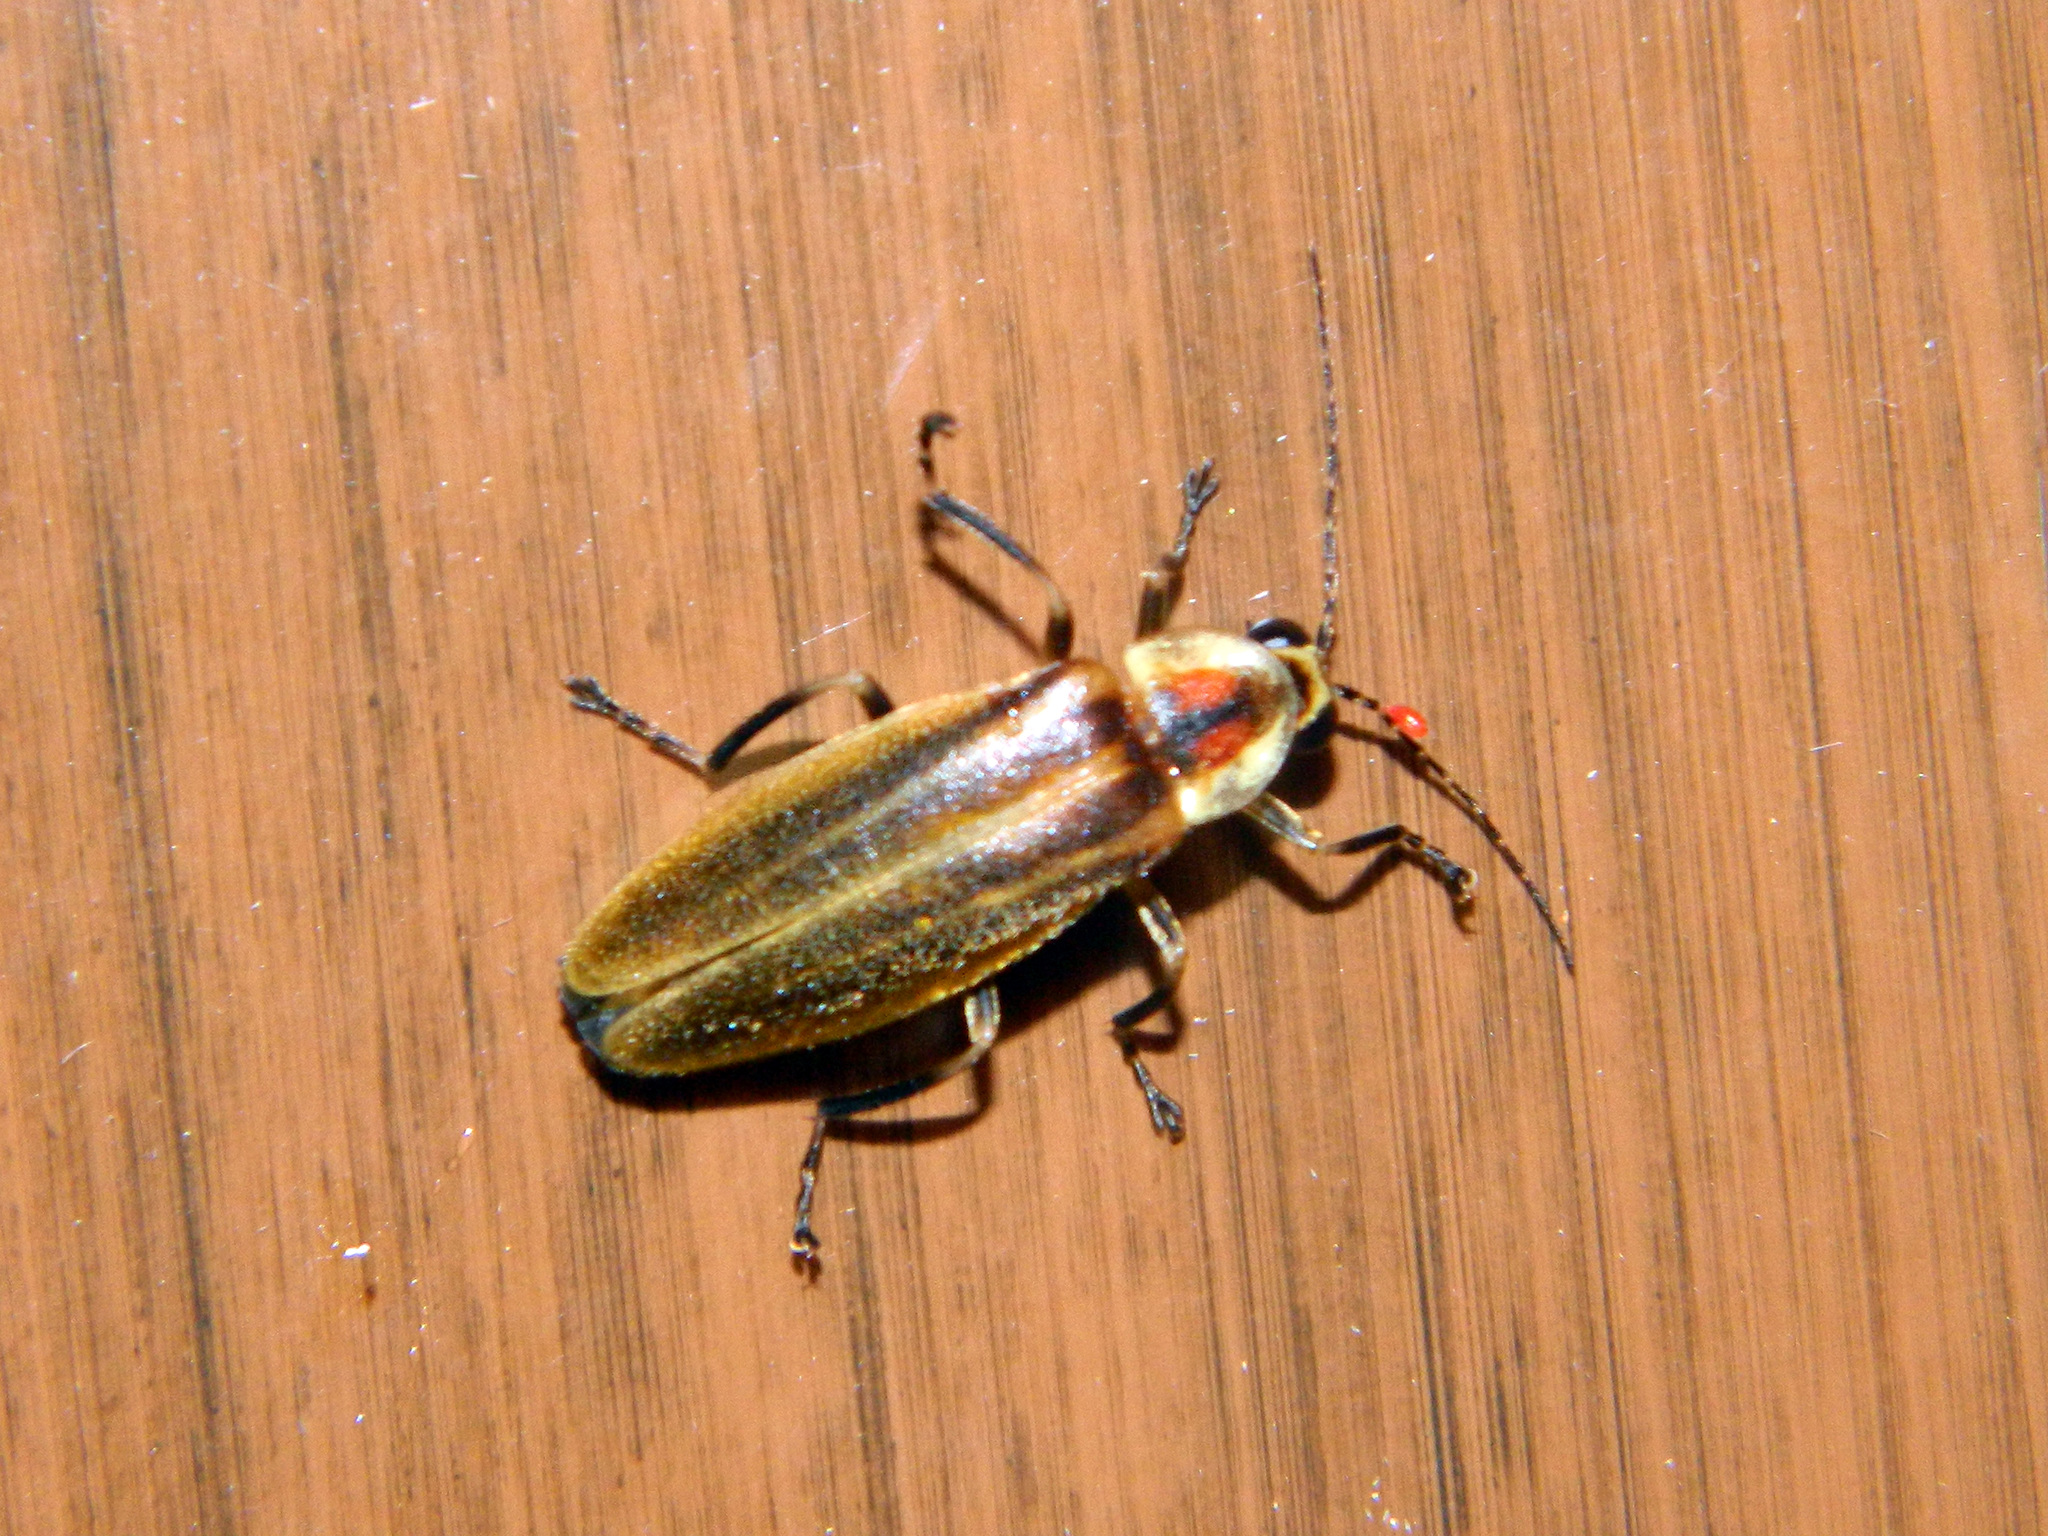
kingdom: Animalia
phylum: Arthropoda
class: Insecta
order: Coleoptera
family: Lampyridae
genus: Photuris
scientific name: Photuris
